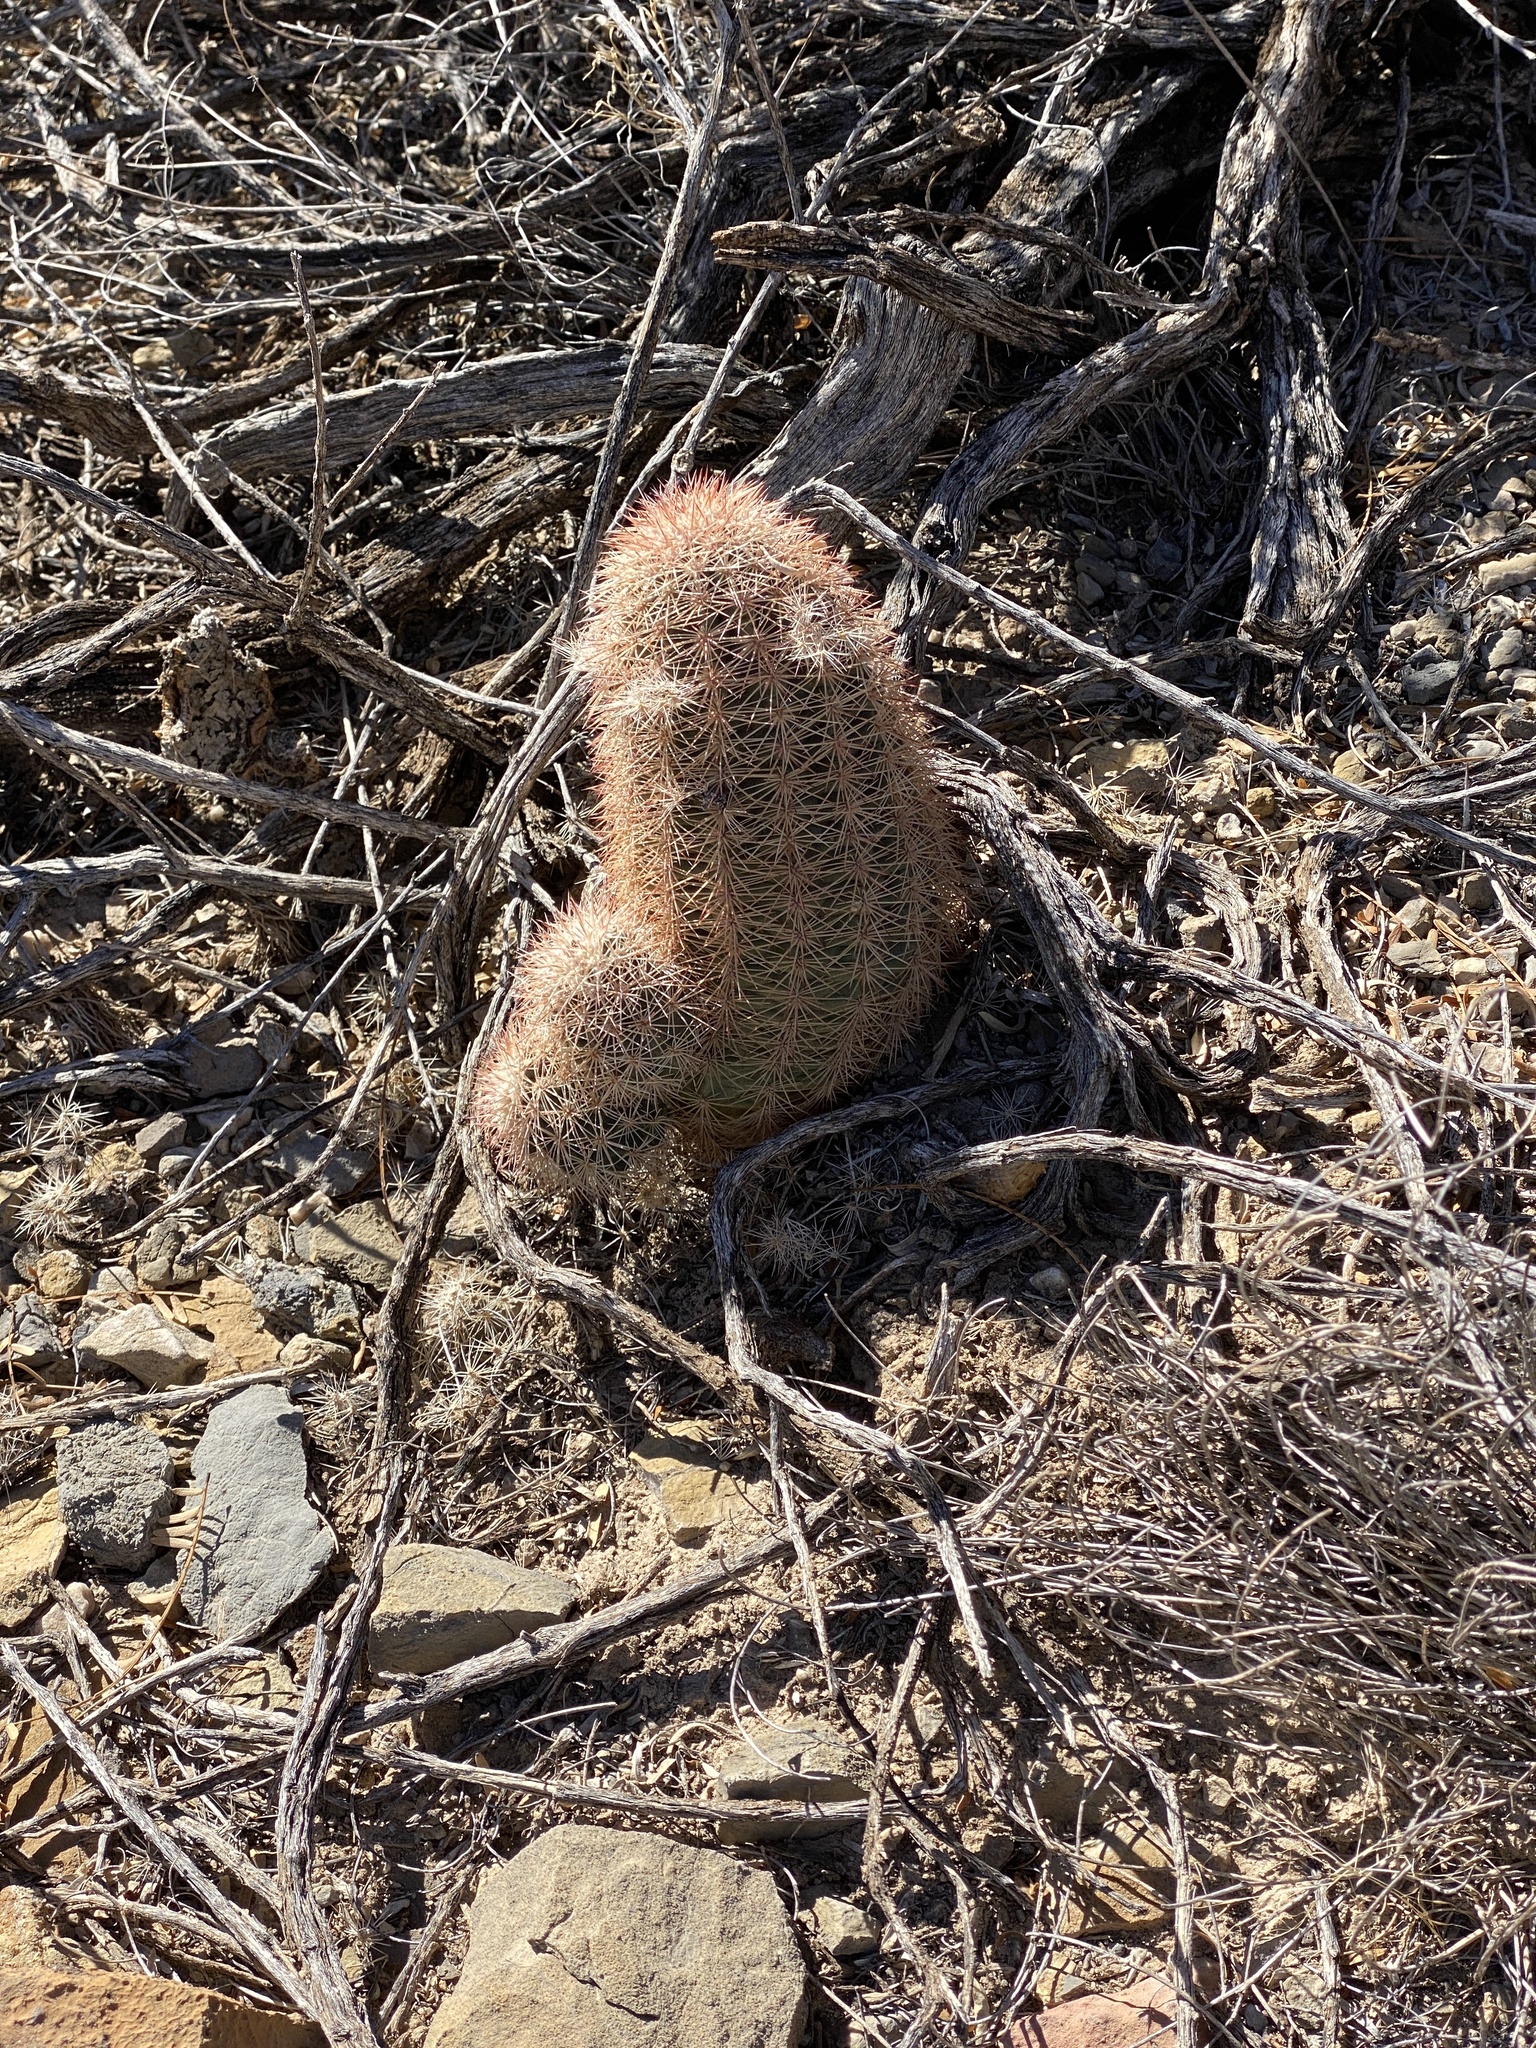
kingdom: Plantae
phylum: Tracheophyta
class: Magnoliopsida
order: Caryophyllales
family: Cactaceae
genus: Echinocereus
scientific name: Echinocereus dasyacanthus
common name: Spiny hedgehog cactus
